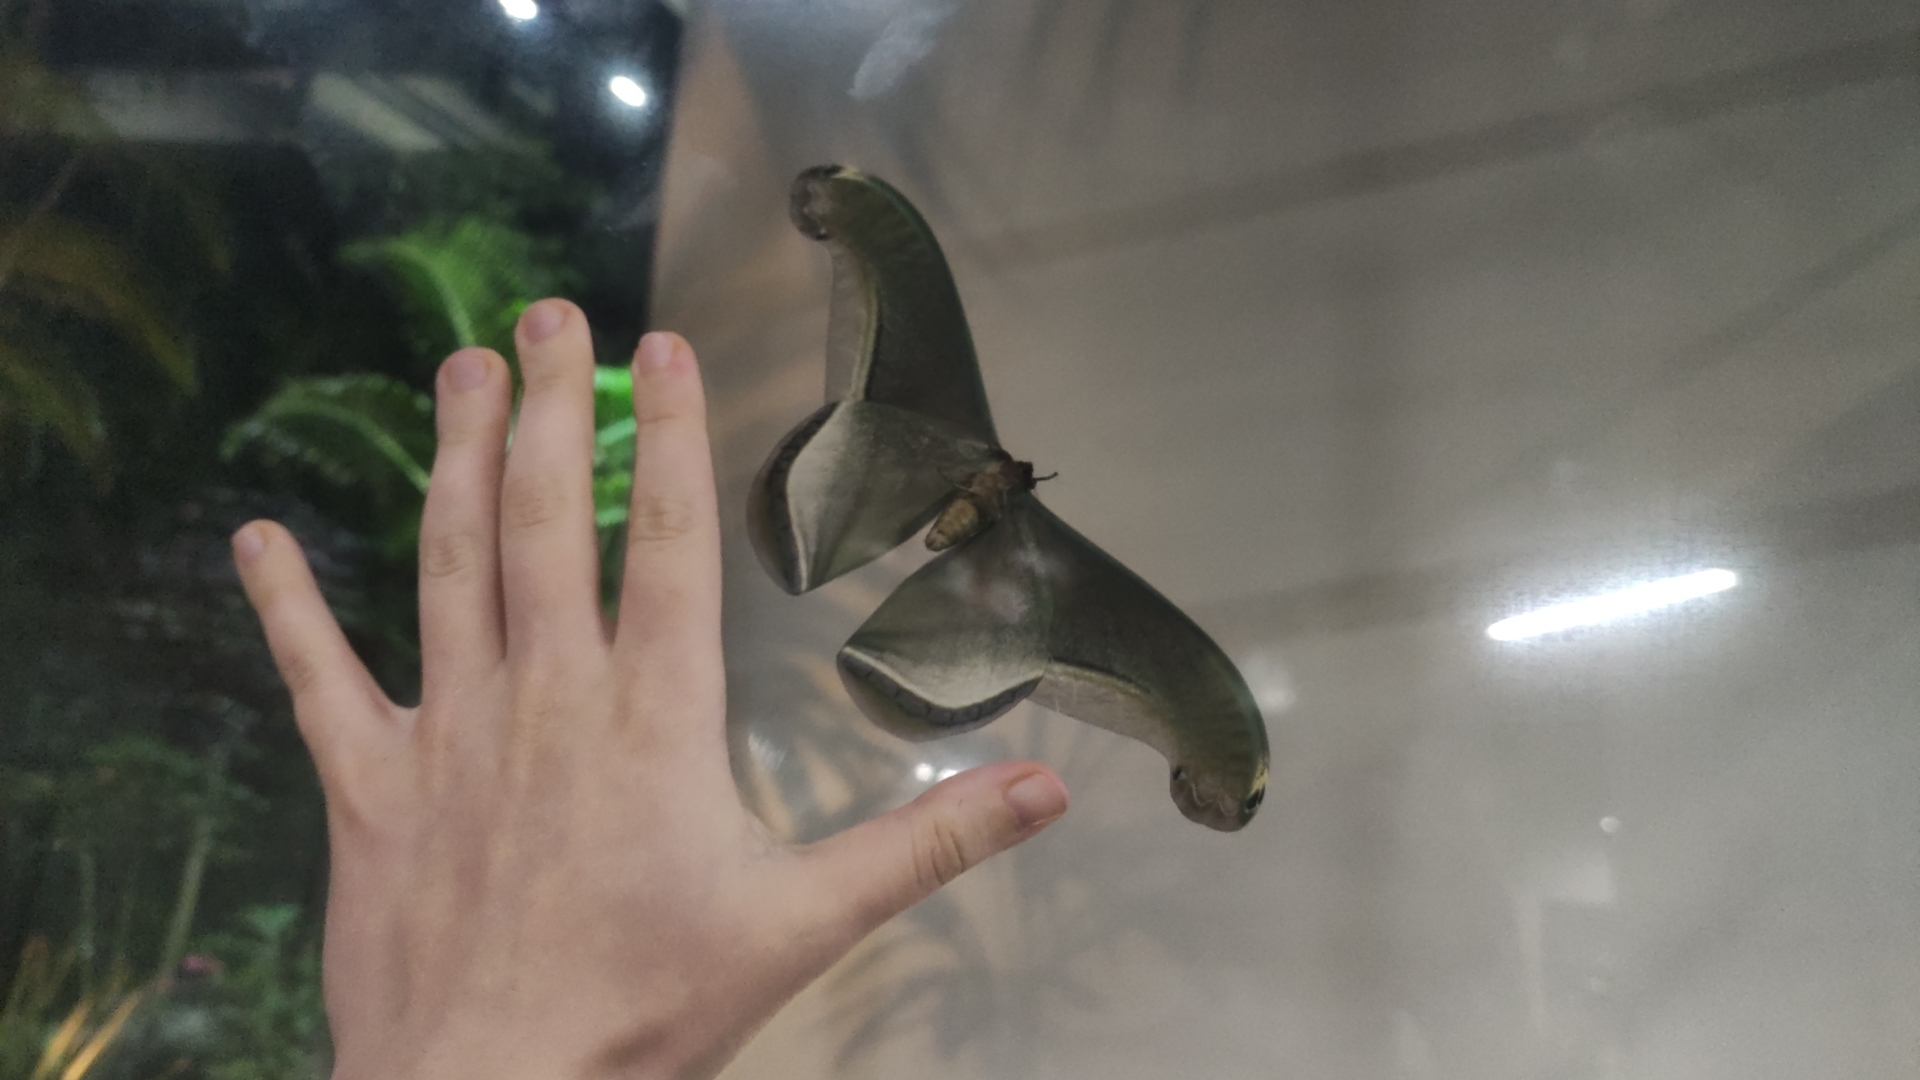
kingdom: Animalia
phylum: Arthropoda
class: Insecta
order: Lepidoptera
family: Saturniidae
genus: Rhescyntis
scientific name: Rhescyntis pseudomartii
